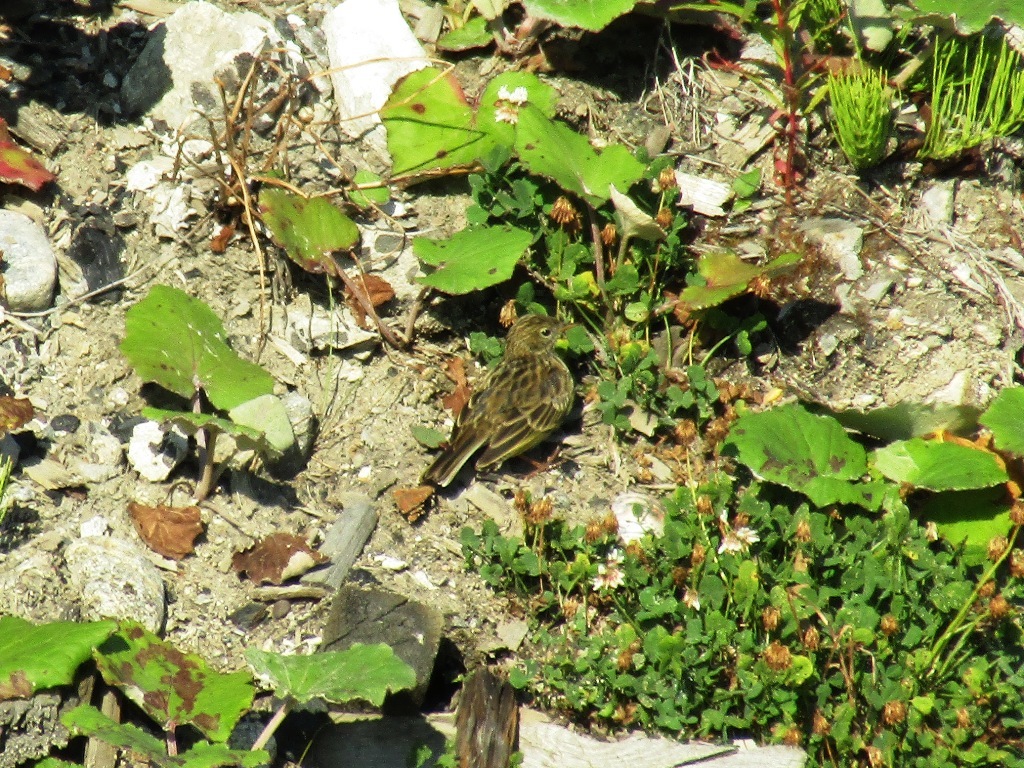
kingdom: Animalia
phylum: Chordata
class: Aves
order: Passeriformes
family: Motacillidae
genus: Anthus
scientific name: Anthus pratensis
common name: Meadow pipit
